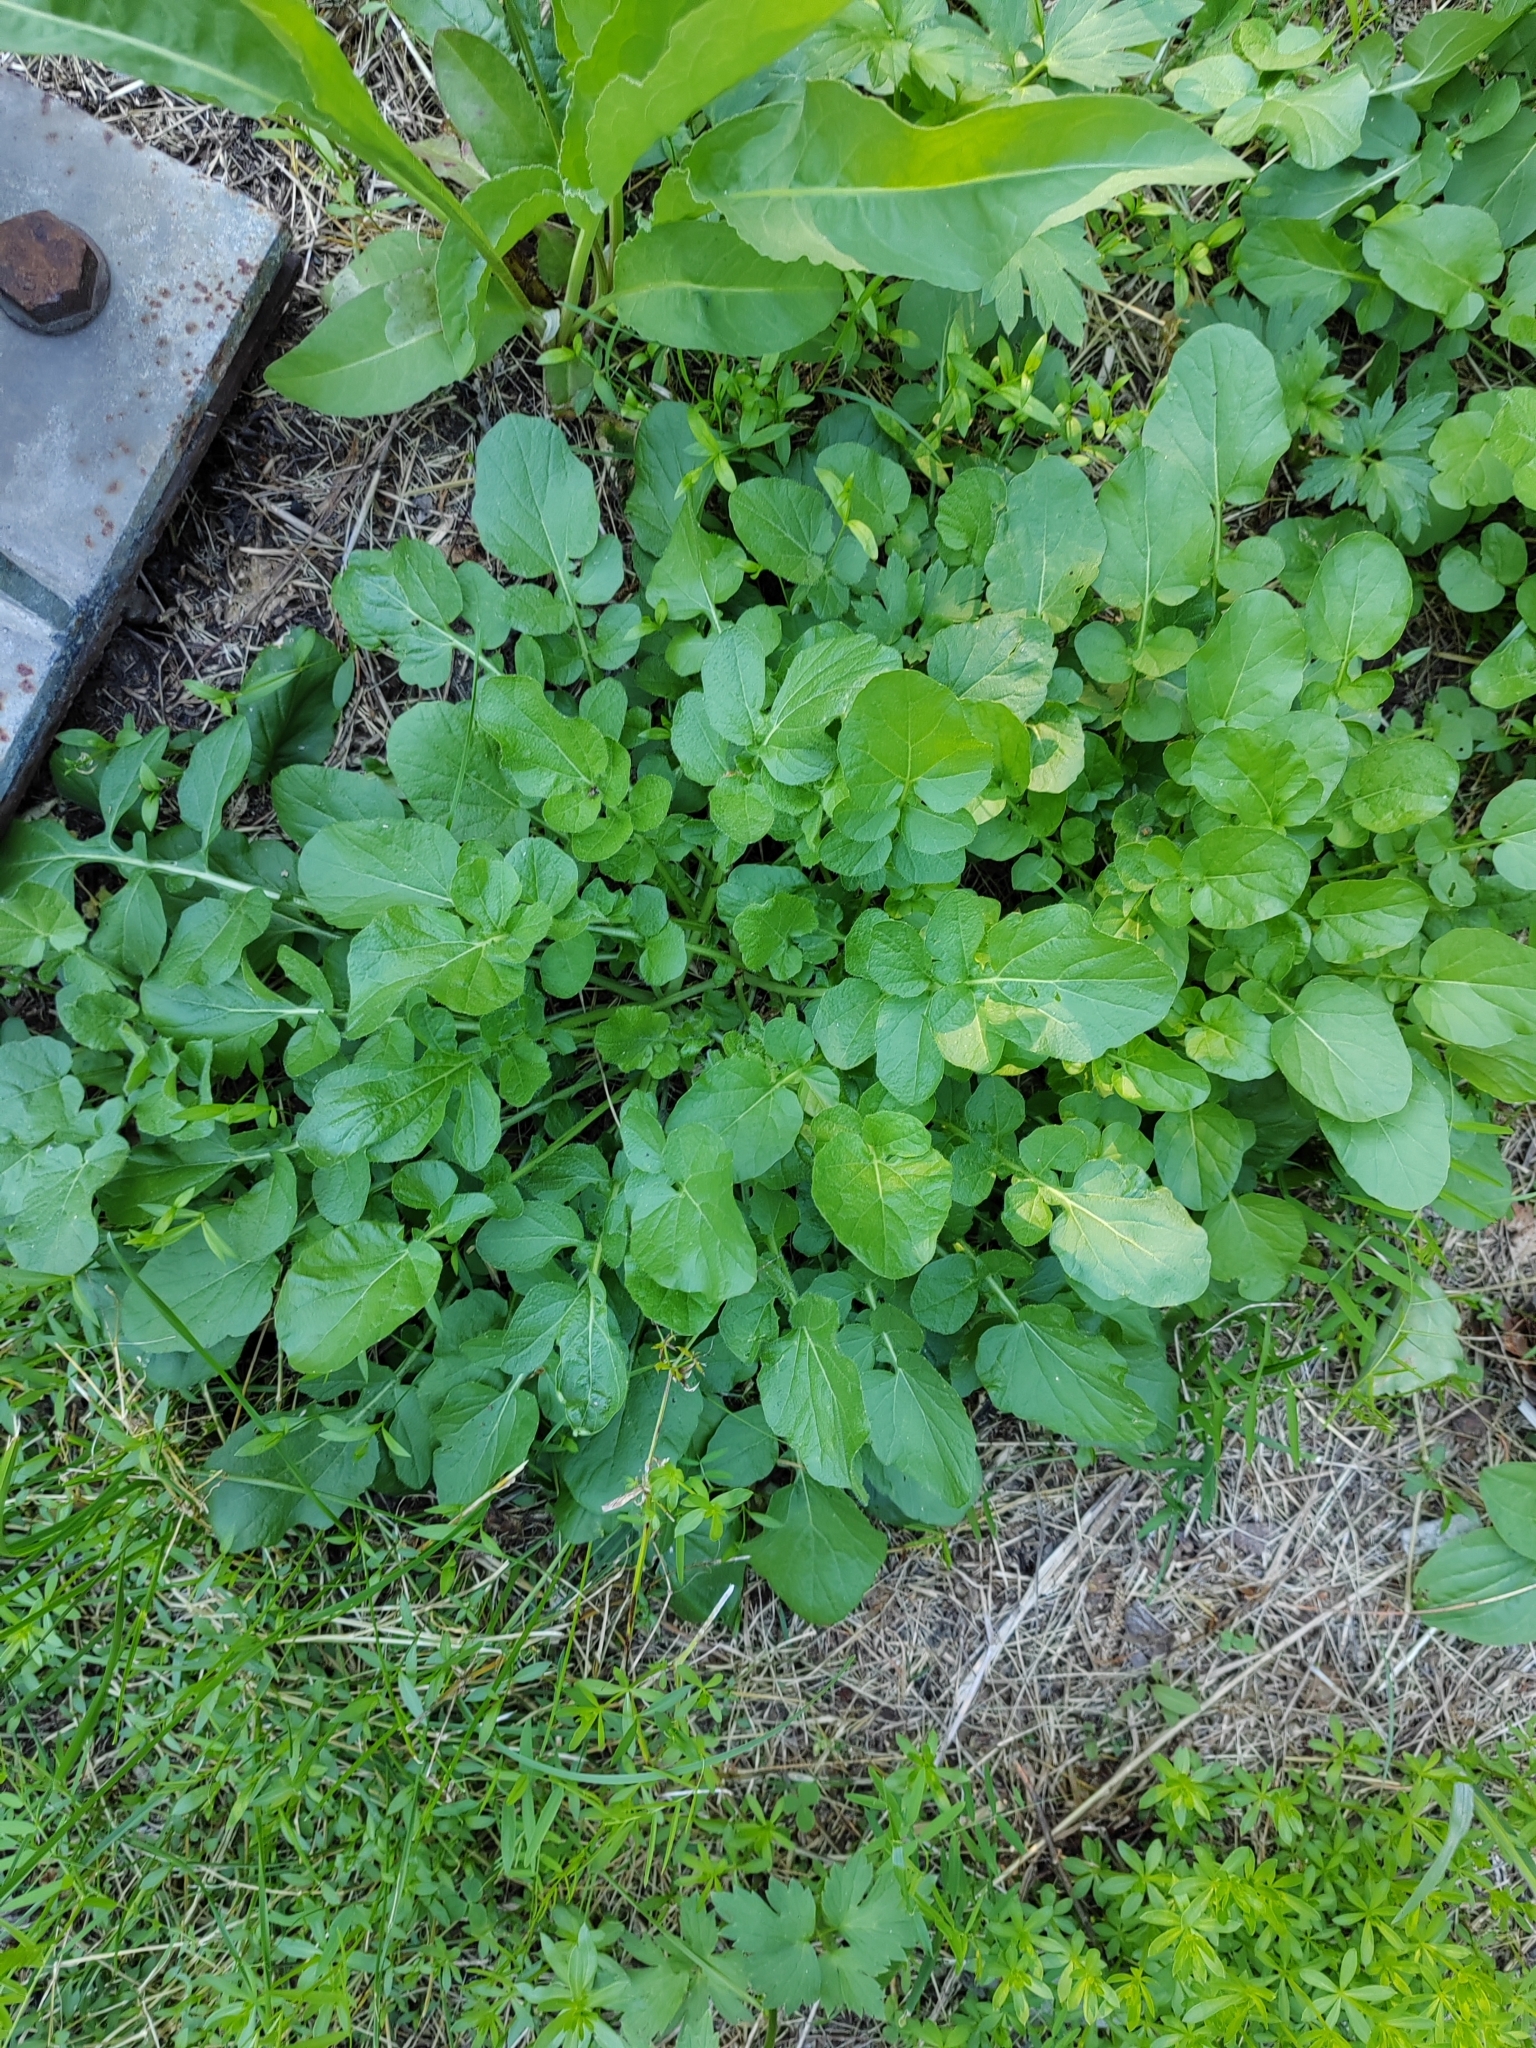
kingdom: Plantae
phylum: Tracheophyta
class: Magnoliopsida
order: Brassicales
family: Brassicaceae
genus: Barbarea
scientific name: Barbarea vulgaris
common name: Cressy-greens
